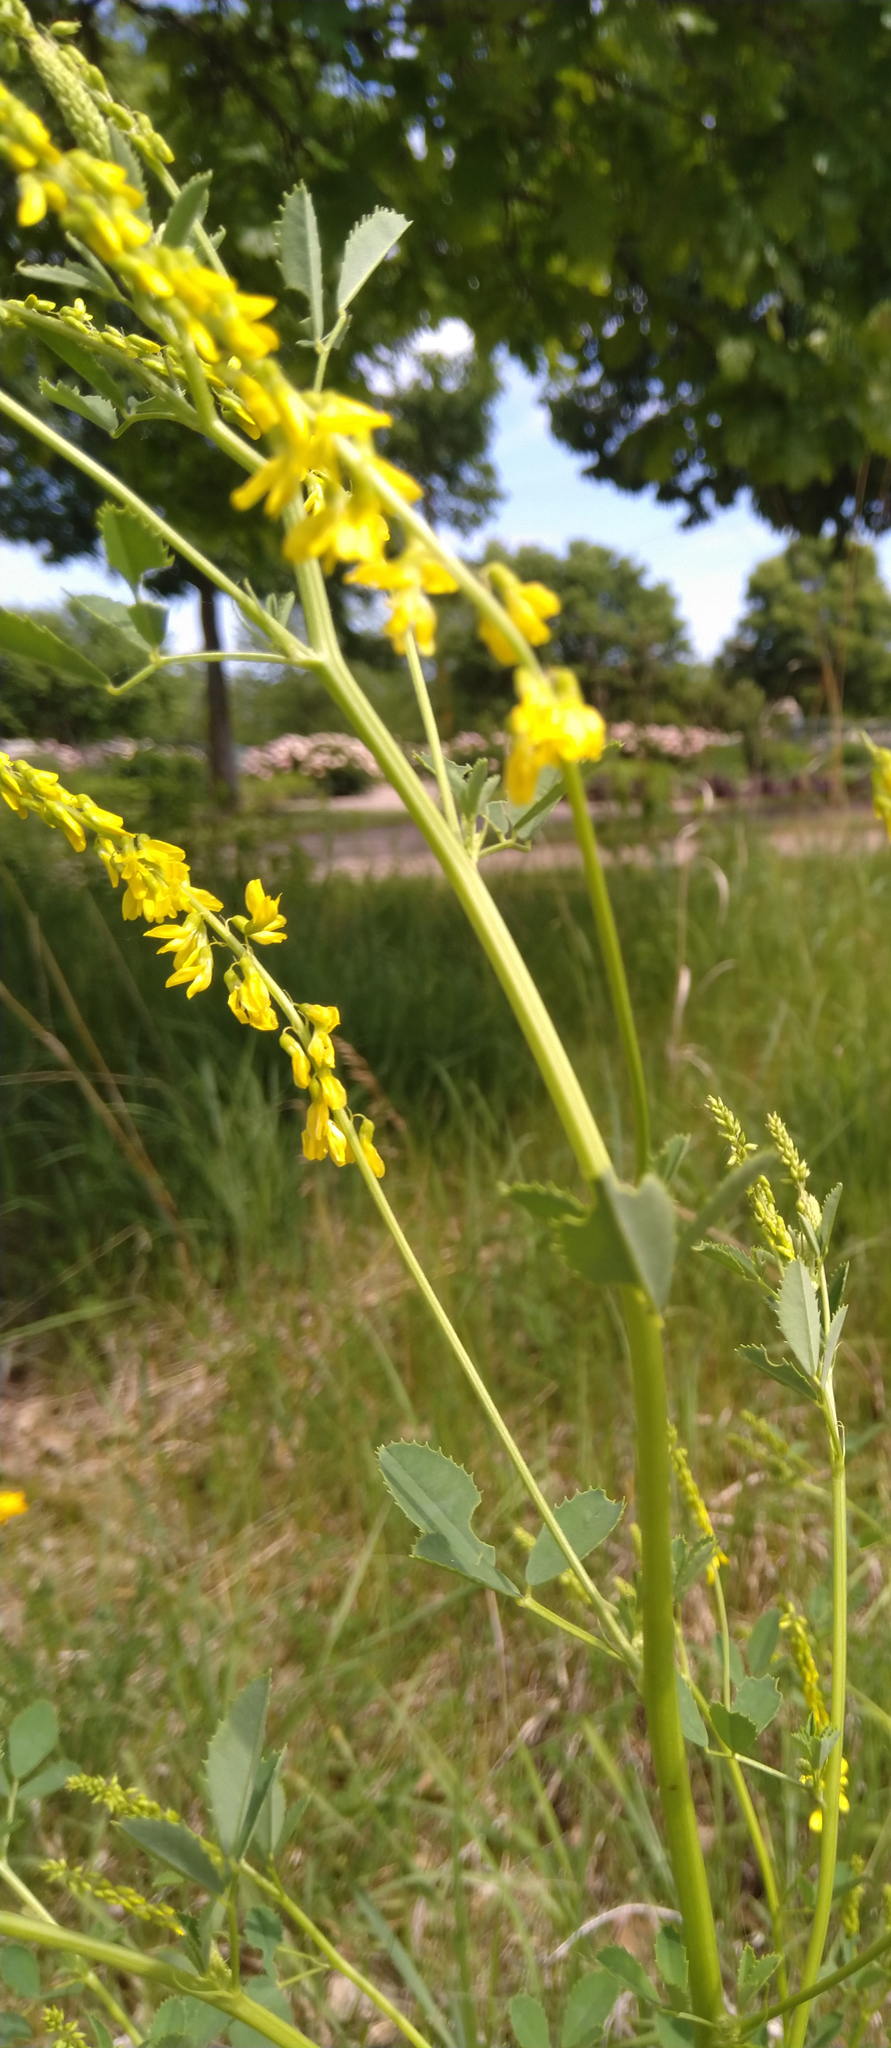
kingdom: Plantae
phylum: Tracheophyta
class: Magnoliopsida
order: Fabales
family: Fabaceae
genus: Melilotus
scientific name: Melilotus officinalis
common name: Sweetclover
